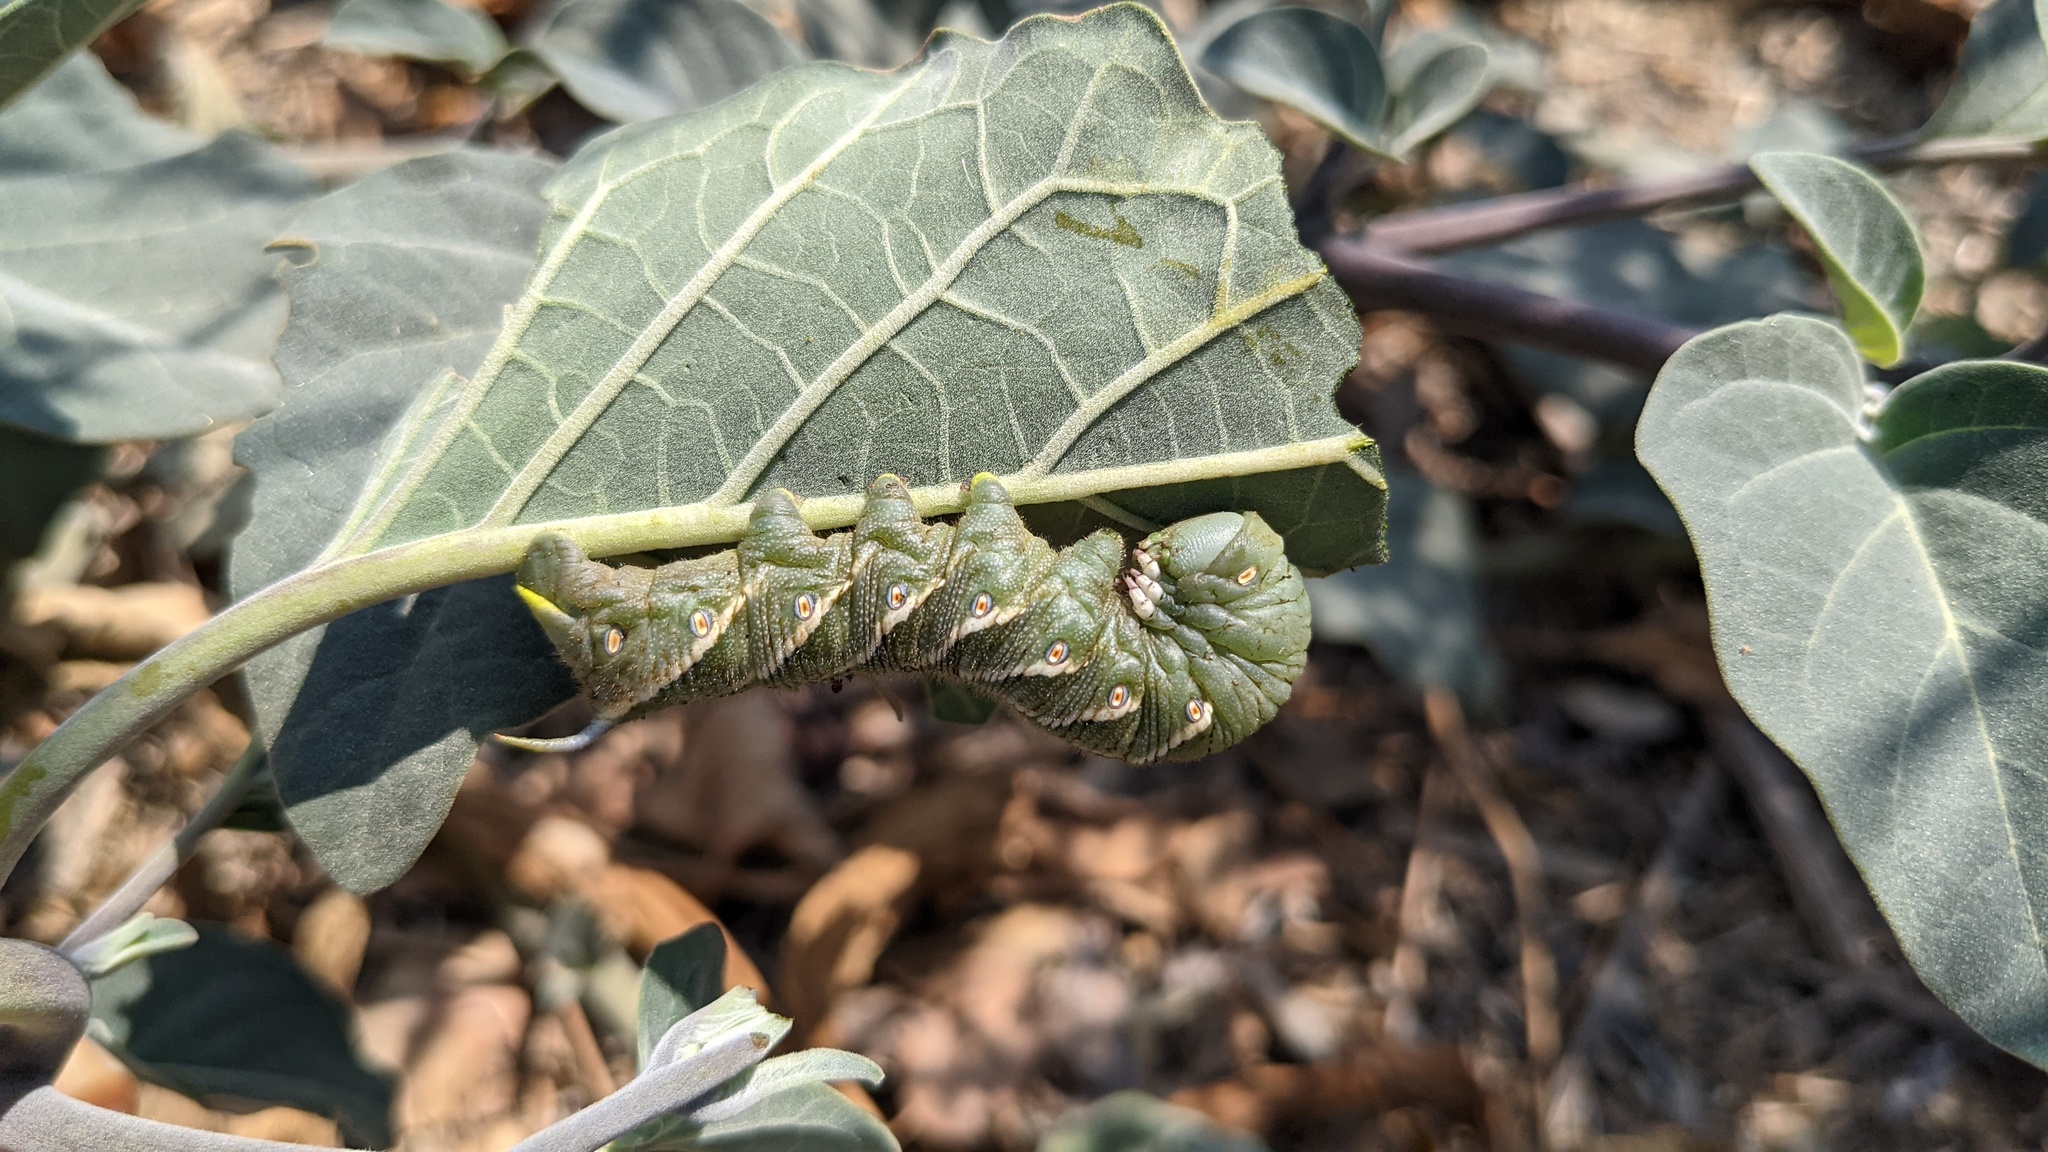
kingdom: Animalia
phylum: Arthropoda
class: Insecta
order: Lepidoptera
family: Sphingidae
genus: Manduca
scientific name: Manduca sexta
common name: Carolina sphinx
